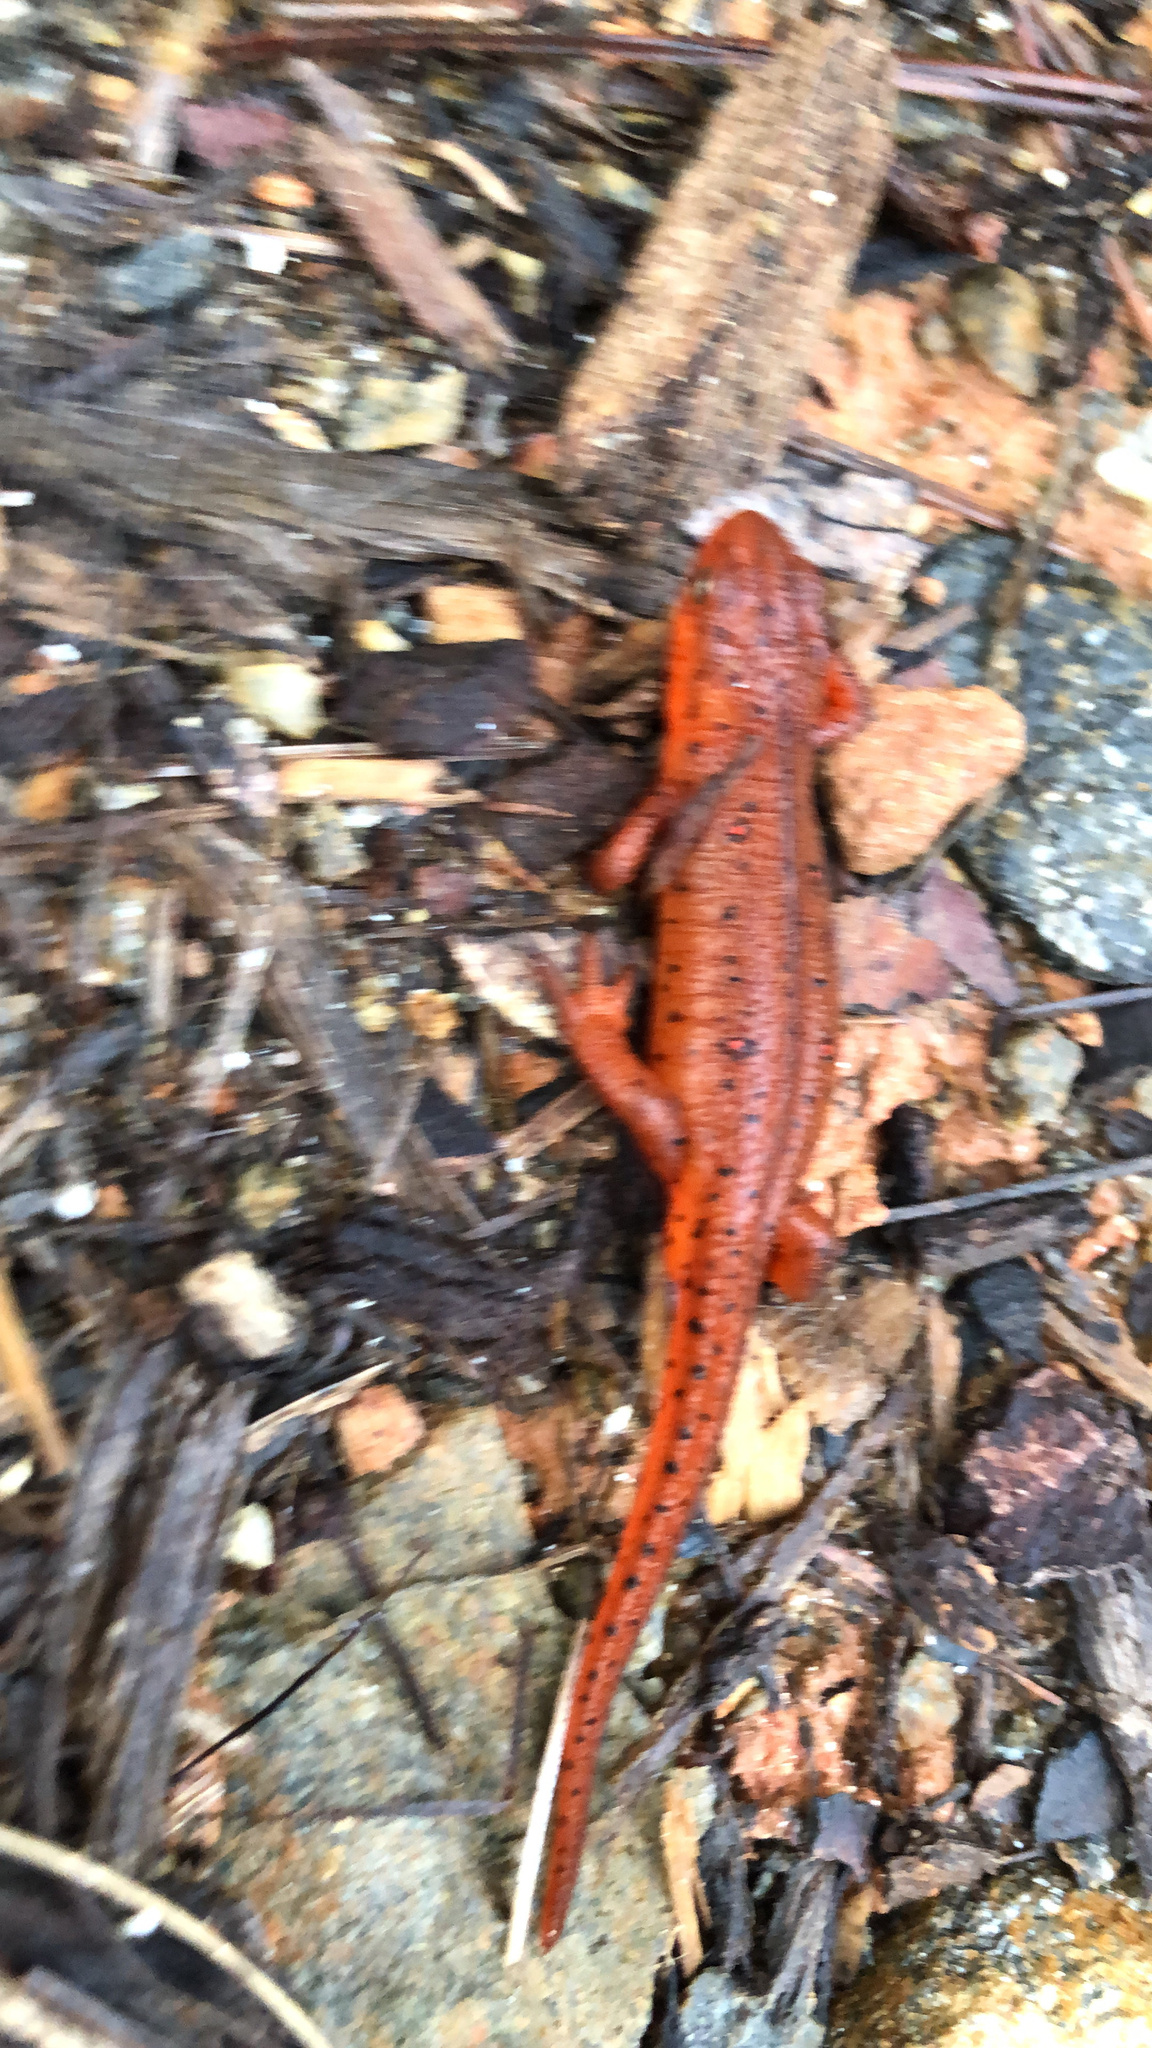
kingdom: Animalia
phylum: Chordata
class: Amphibia
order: Caudata
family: Salamandridae
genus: Notophthalmus
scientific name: Notophthalmus viridescens
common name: Eastern newt
